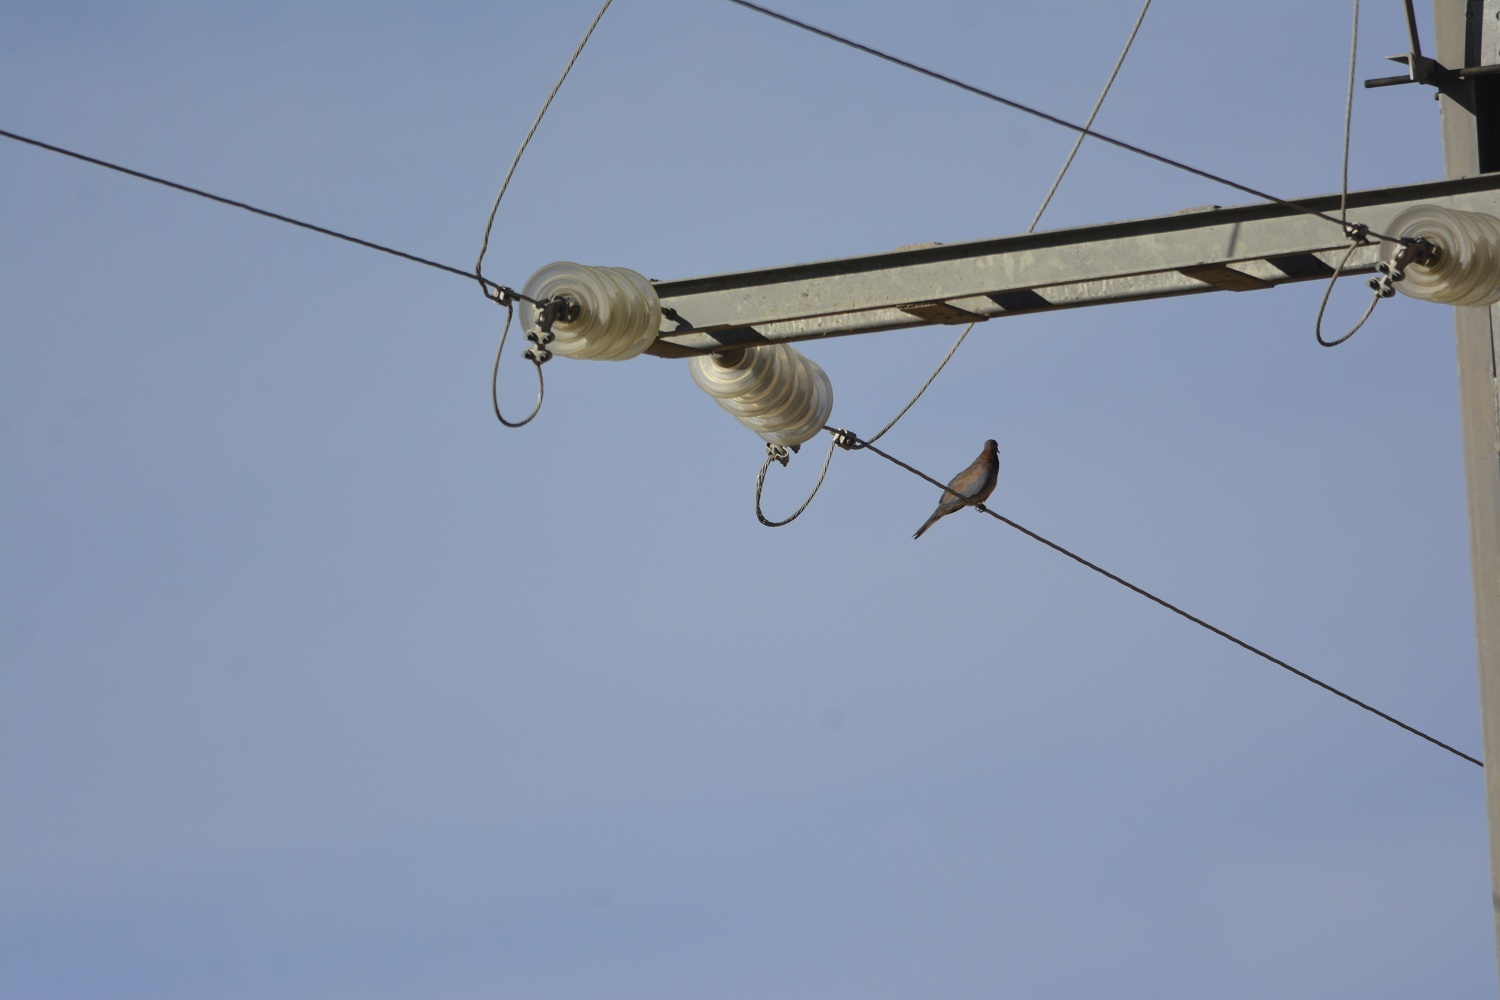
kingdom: Animalia
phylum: Chordata
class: Aves
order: Columbiformes
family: Columbidae
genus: Spilopelia
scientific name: Spilopelia senegalensis
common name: Laughing dove
